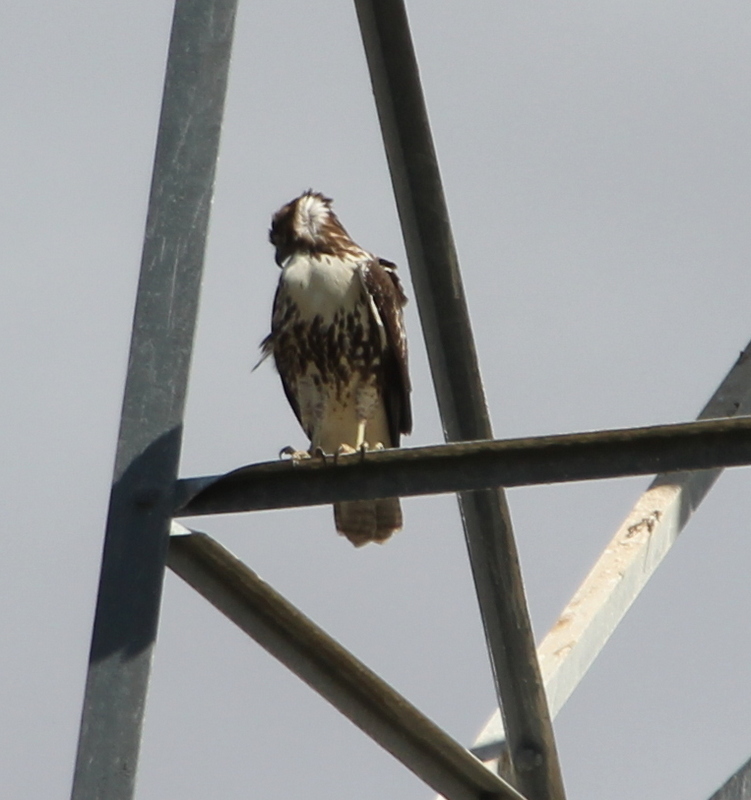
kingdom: Animalia
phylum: Chordata
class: Aves
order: Accipitriformes
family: Accipitridae
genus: Buteo
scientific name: Buteo jamaicensis
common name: Red-tailed hawk
